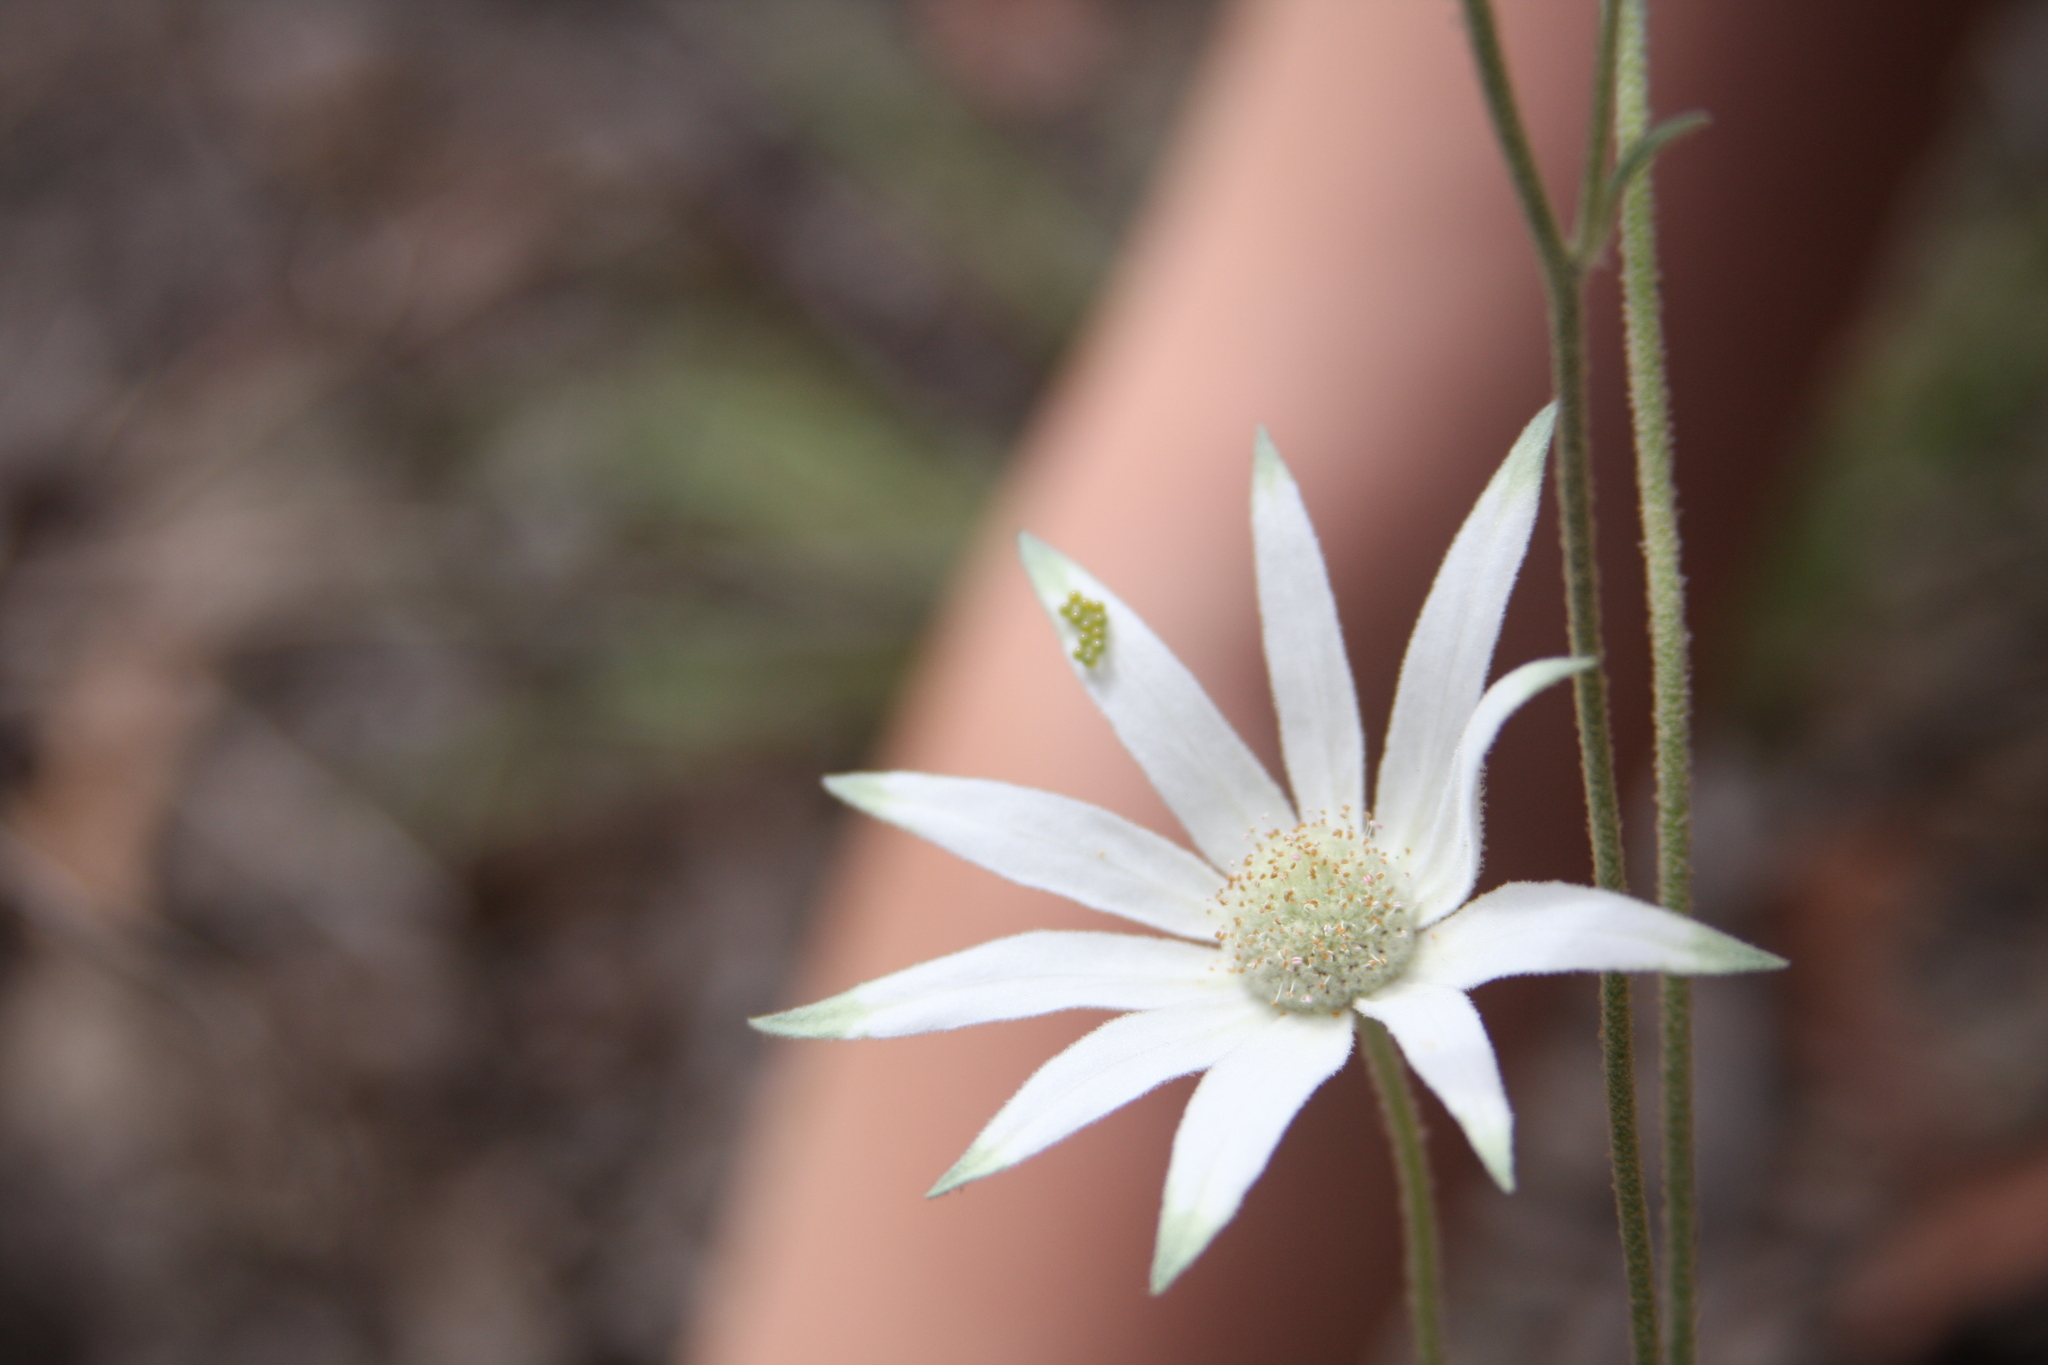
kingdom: Plantae
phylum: Tracheophyta
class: Magnoliopsida
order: Apiales
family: Apiaceae
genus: Actinotus
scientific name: Actinotus helianthi
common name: Flannel-flower
